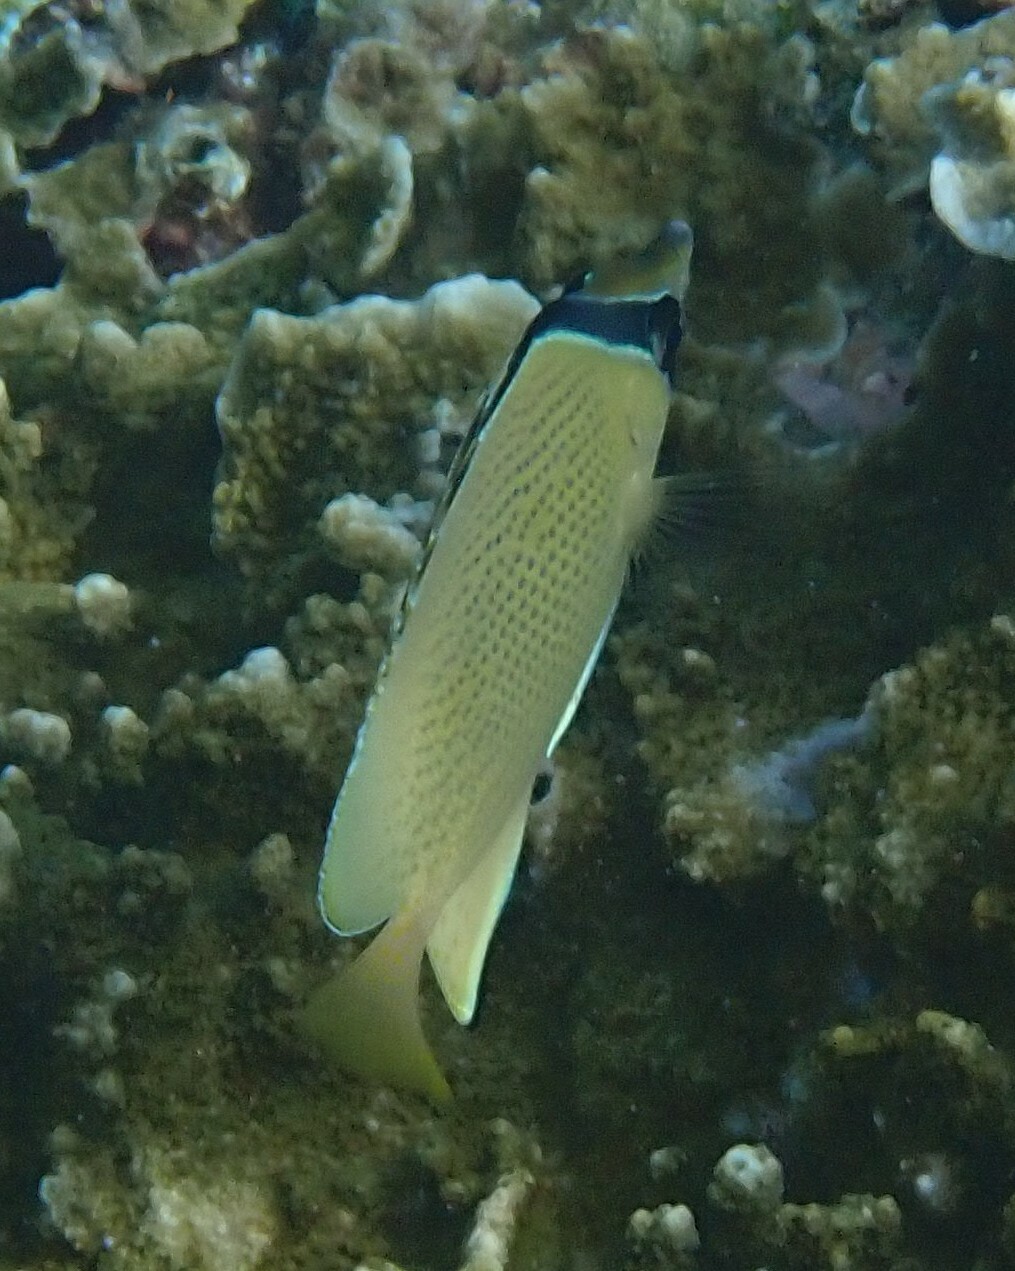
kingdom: Animalia
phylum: Chordata
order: Perciformes
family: Chaetodontidae
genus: Chaetodon
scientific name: Chaetodon citrinellus
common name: Speckled butterflyfish
